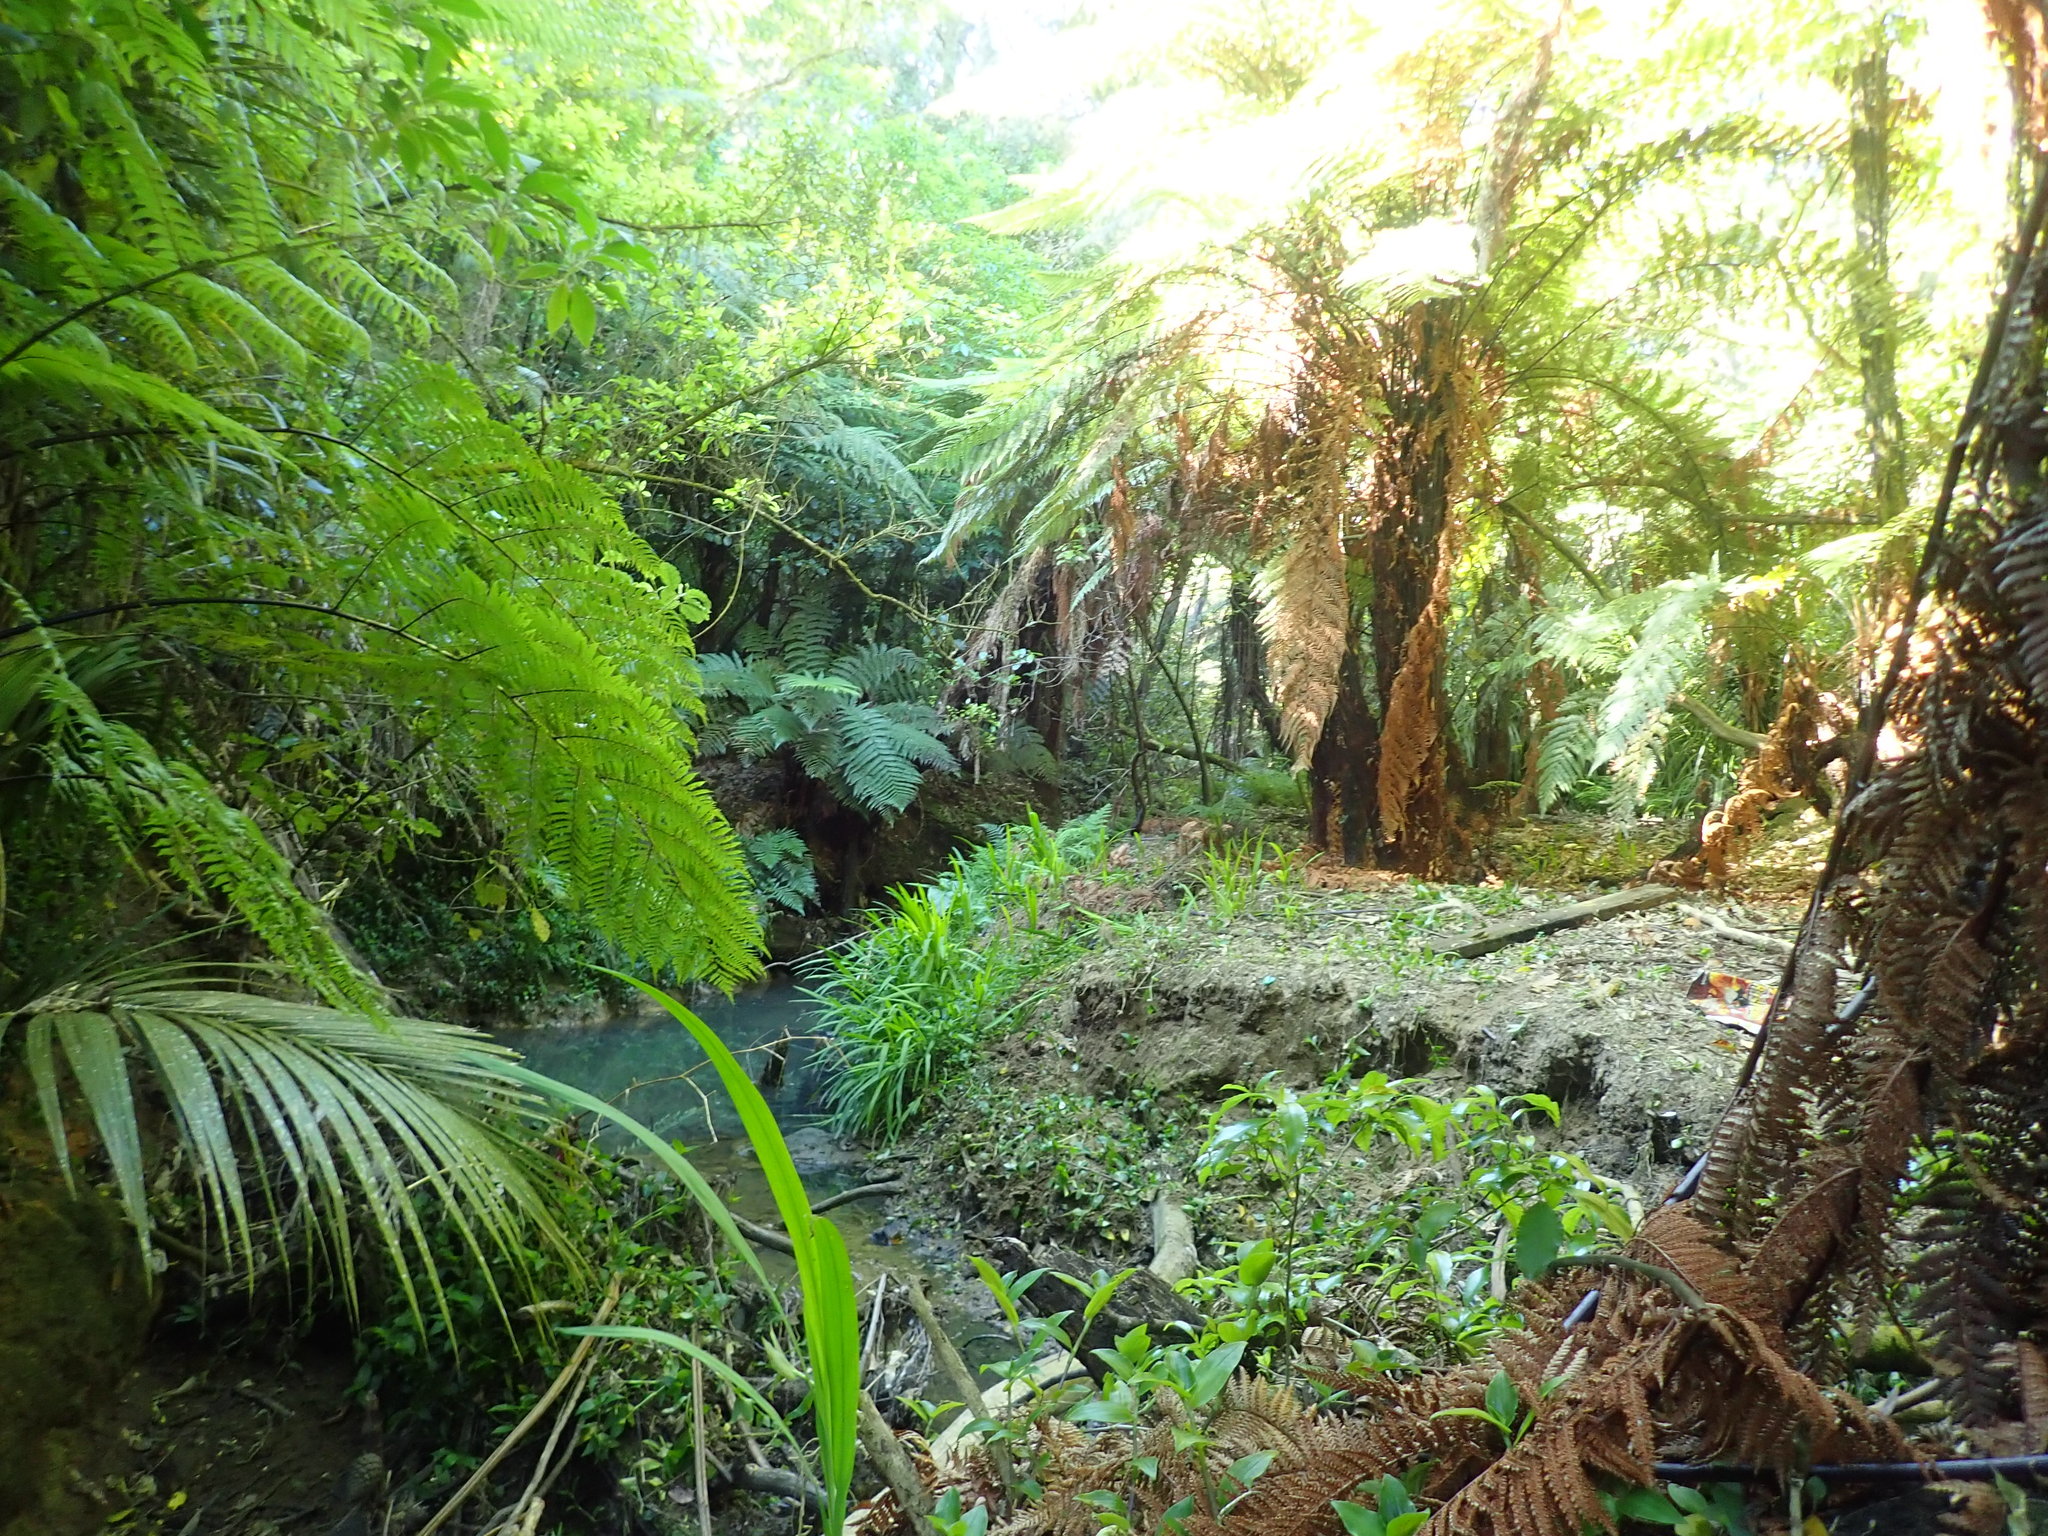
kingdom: Plantae
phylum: Tracheophyta
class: Liliopsida
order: Commelinales
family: Commelinaceae
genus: Tradescantia
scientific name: Tradescantia fluminensis
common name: Wandering-jew
